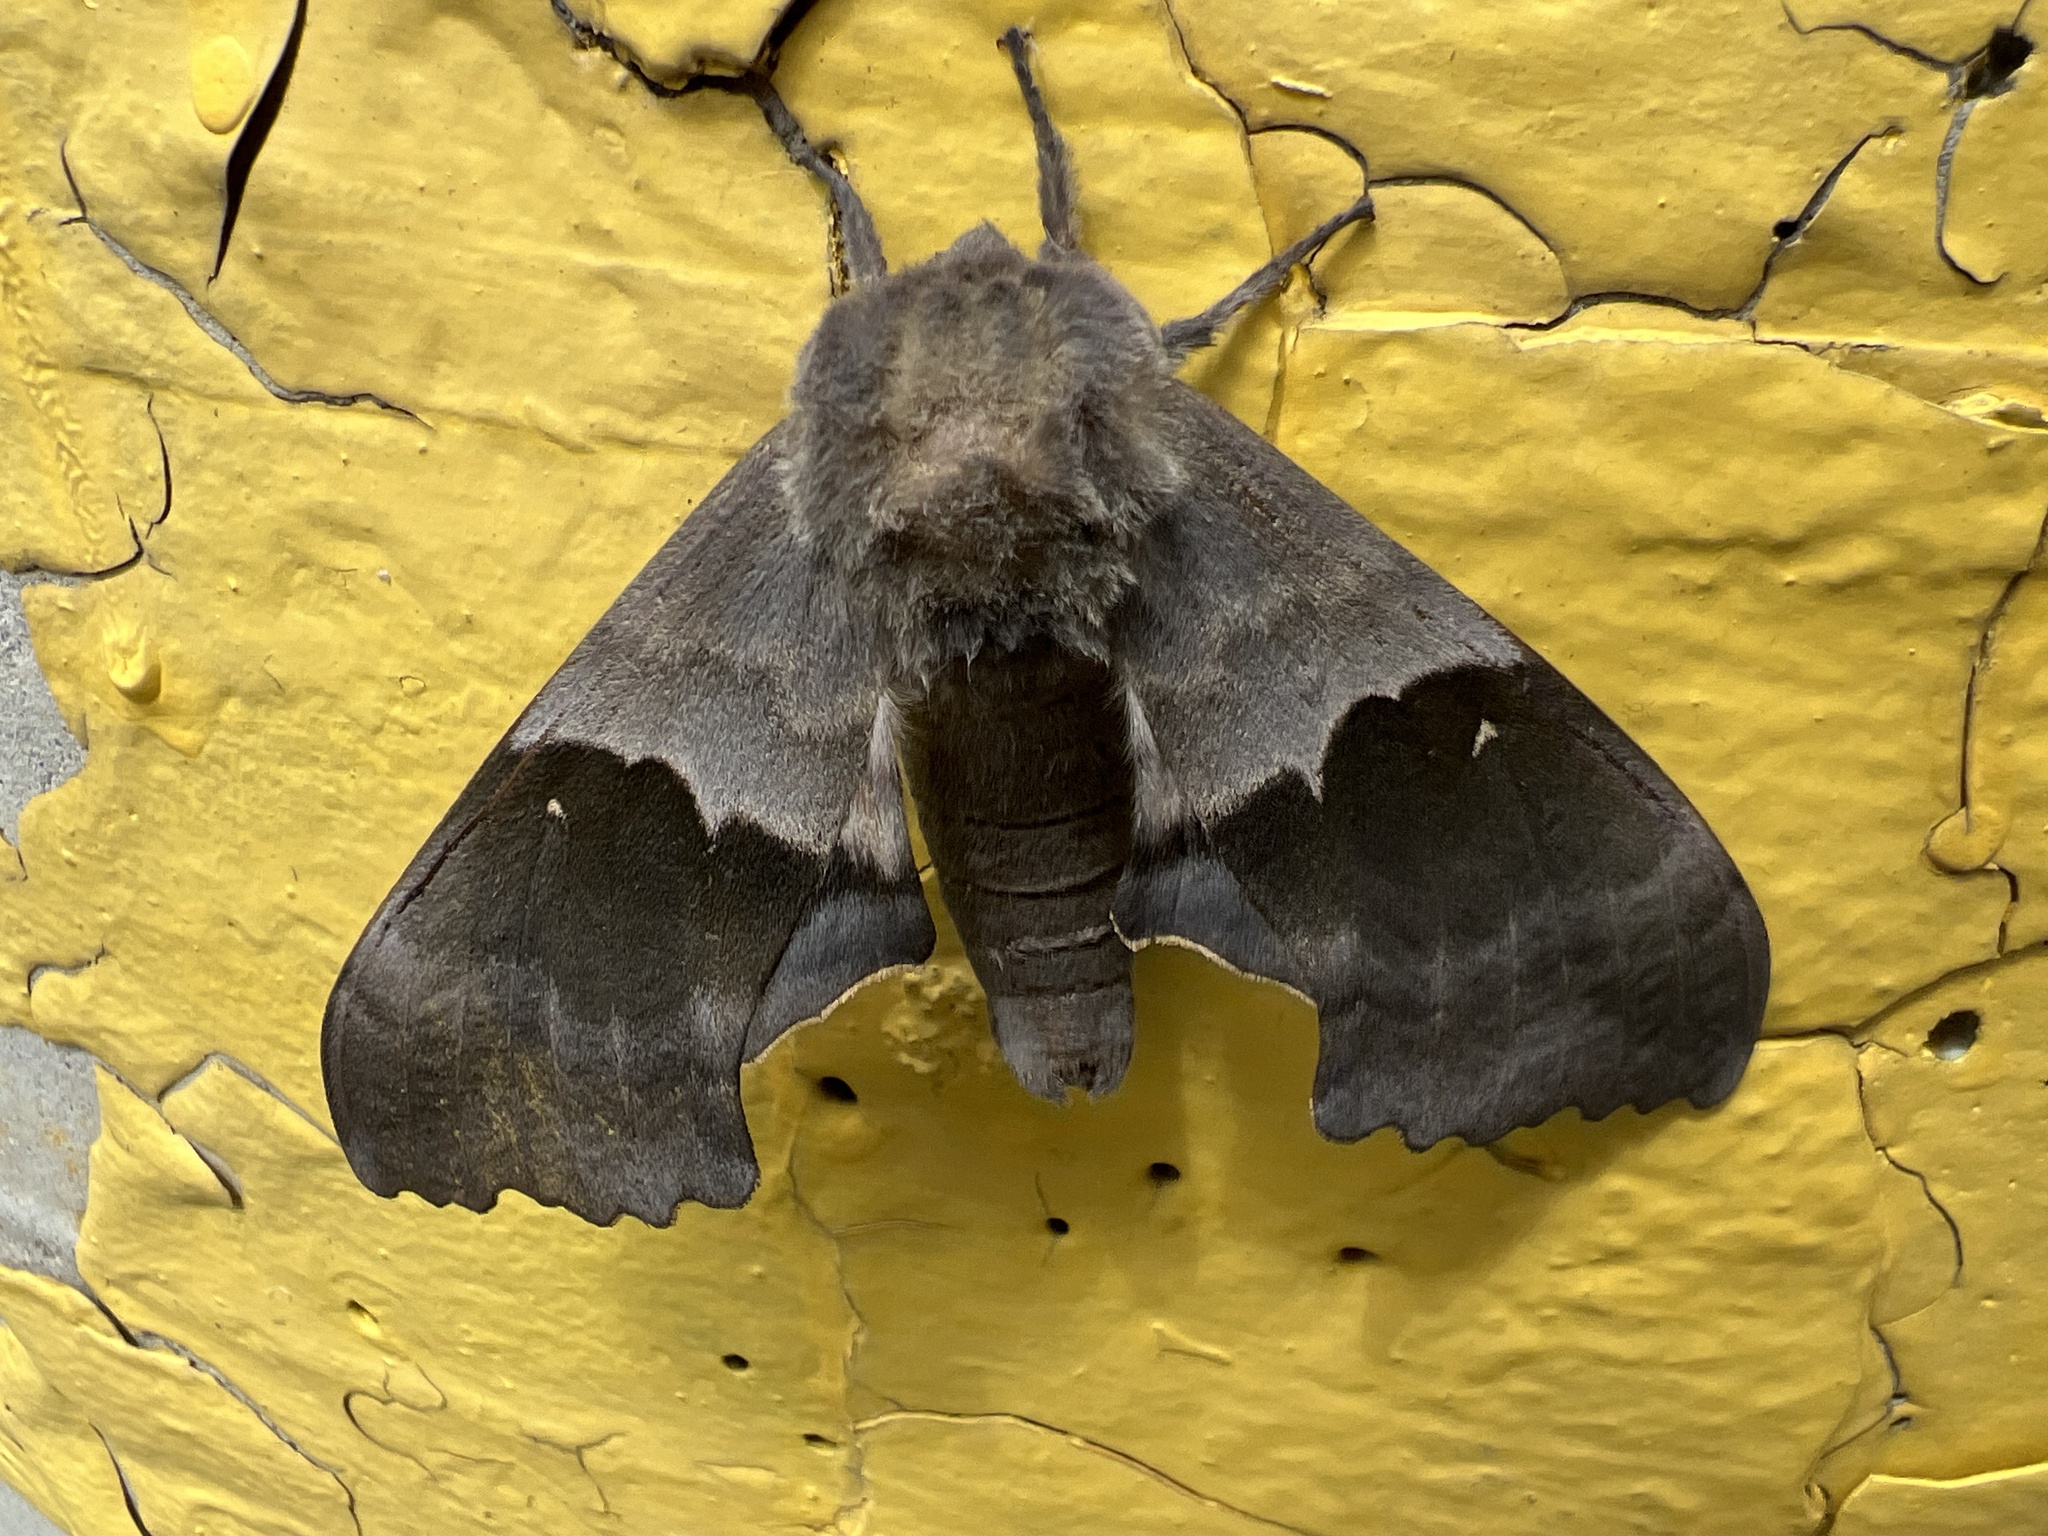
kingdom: Animalia
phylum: Arthropoda
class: Insecta
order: Lepidoptera
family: Sphingidae
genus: Pachysphinx
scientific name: Pachysphinx modesta
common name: Big poplar sphinx
